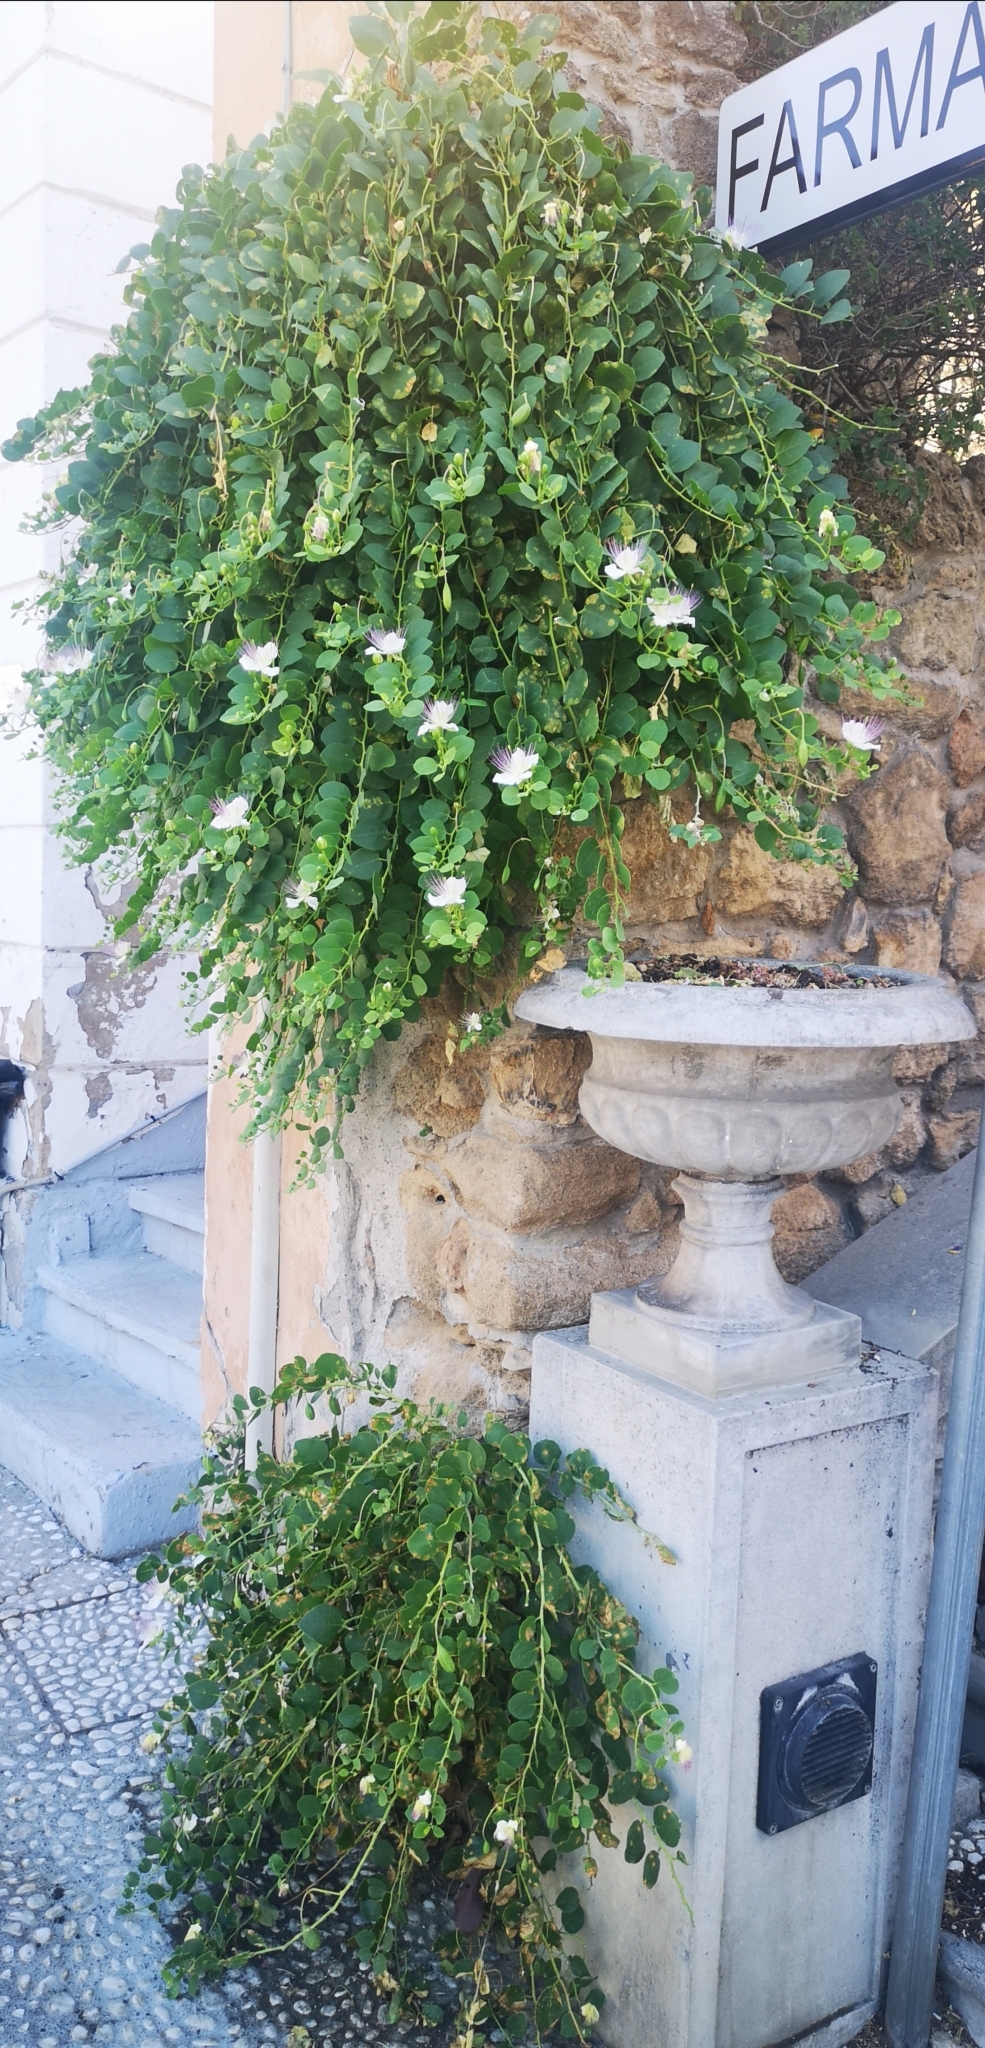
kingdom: Plantae
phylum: Tracheophyta
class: Magnoliopsida
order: Brassicales
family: Capparaceae
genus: Capparis
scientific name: Capparis orientalis
